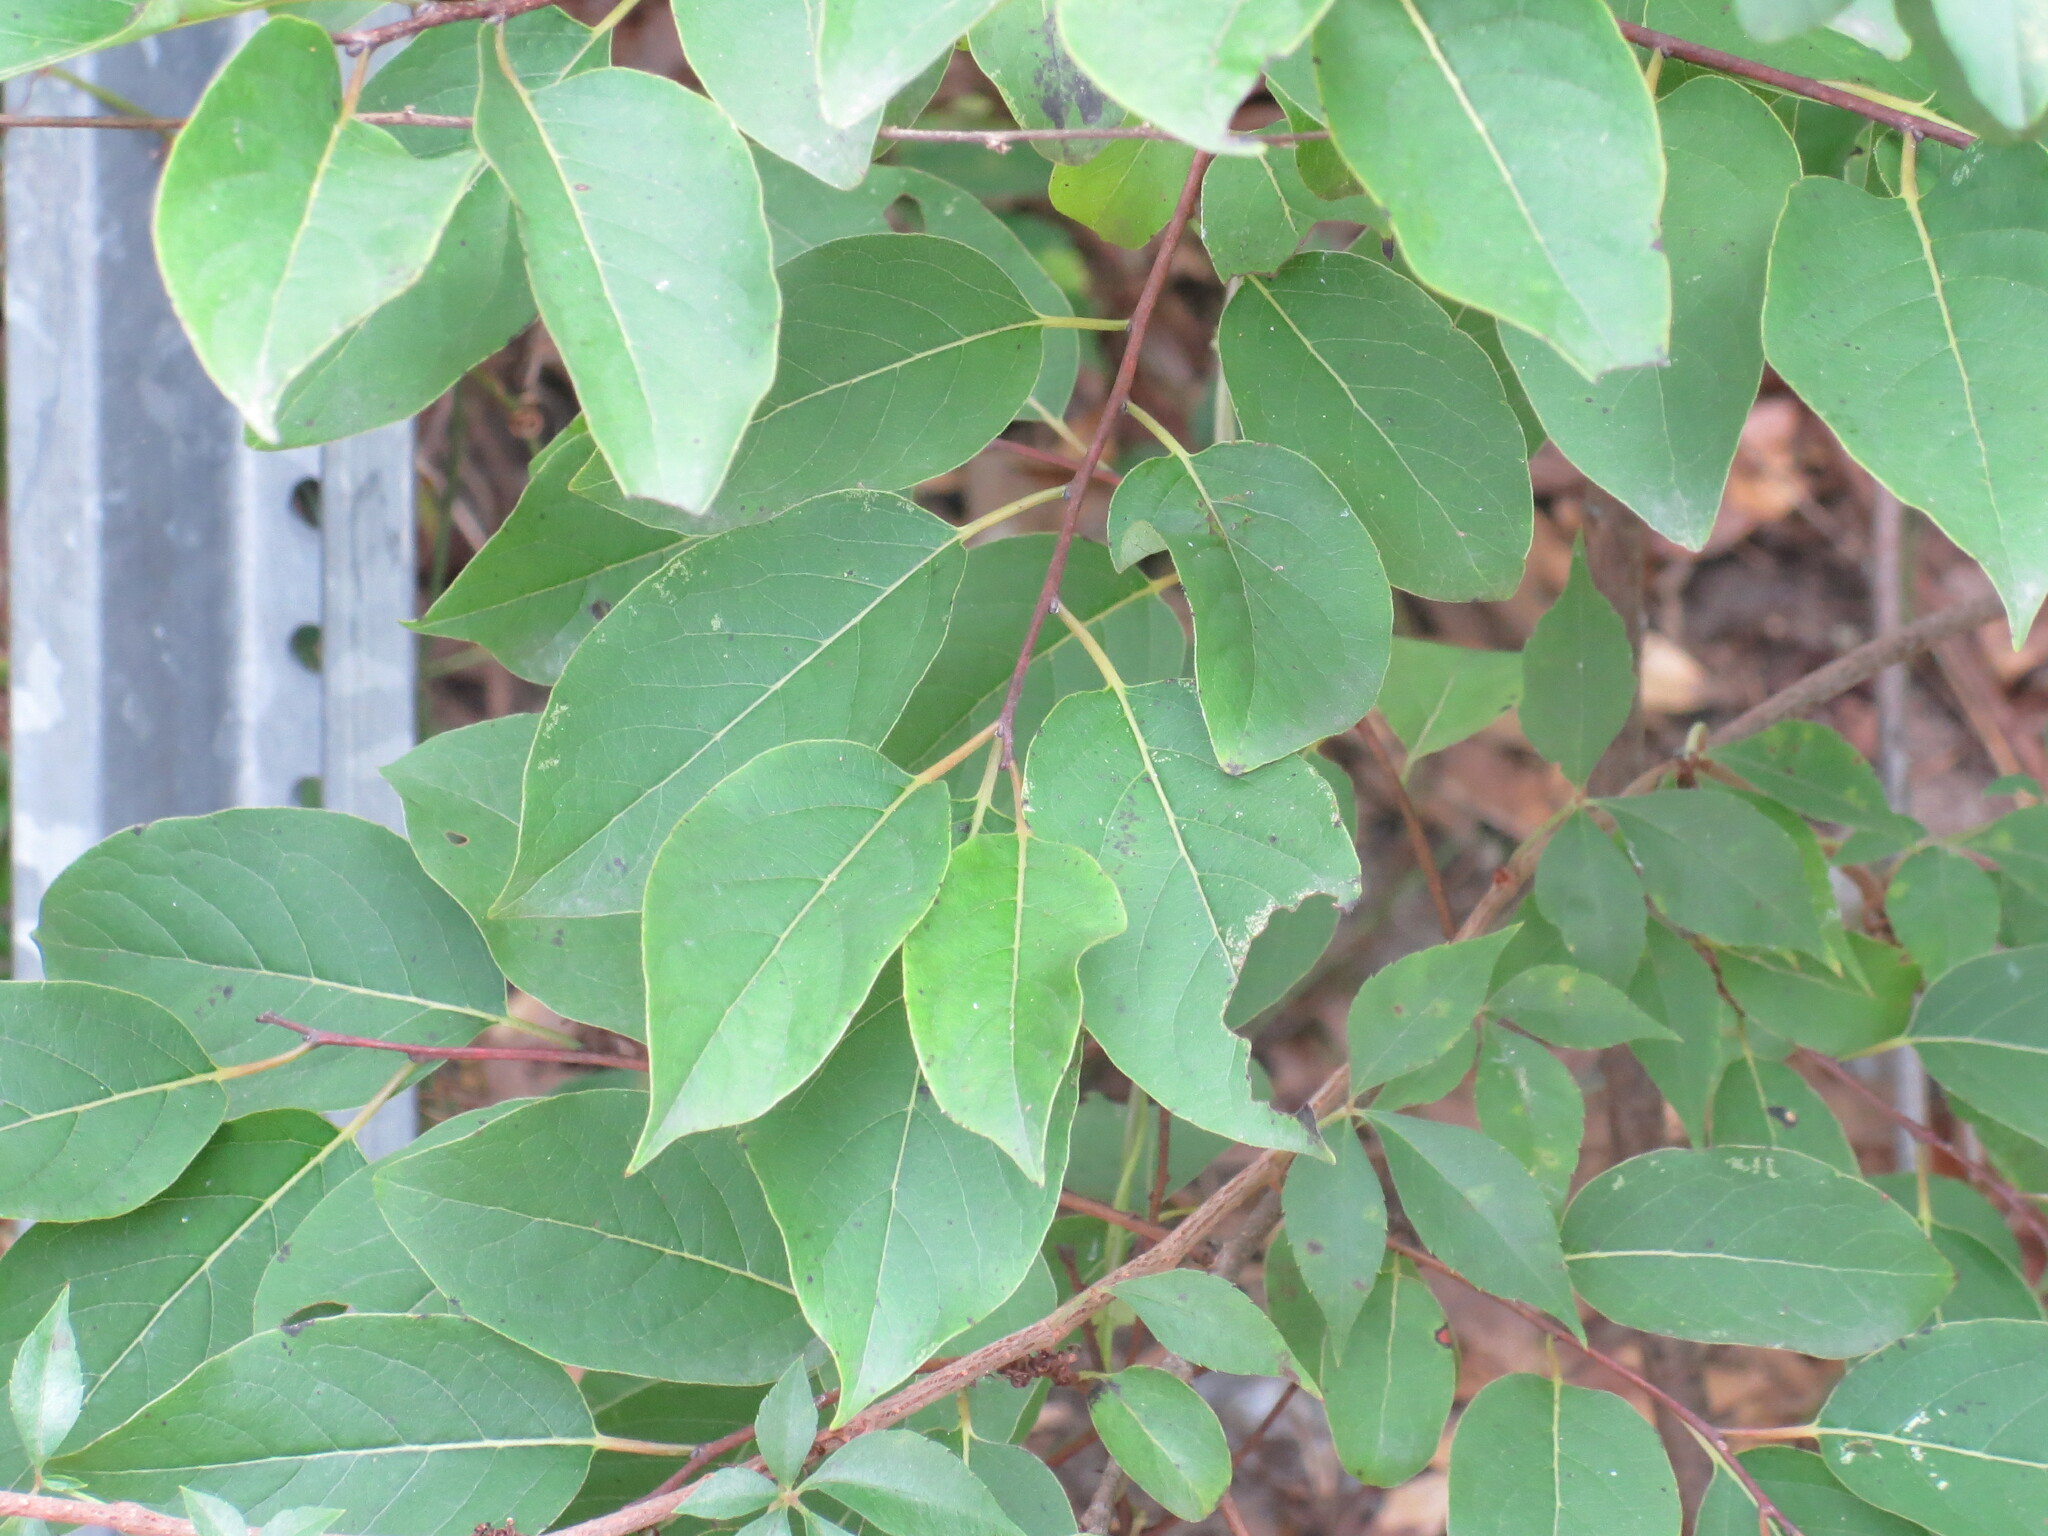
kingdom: Plantae
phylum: Tracheophyta
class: Magnoliopsida
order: Ericales
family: Ebenaceae
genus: Diospyros
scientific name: Diospyros virginiana
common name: Persimmon
